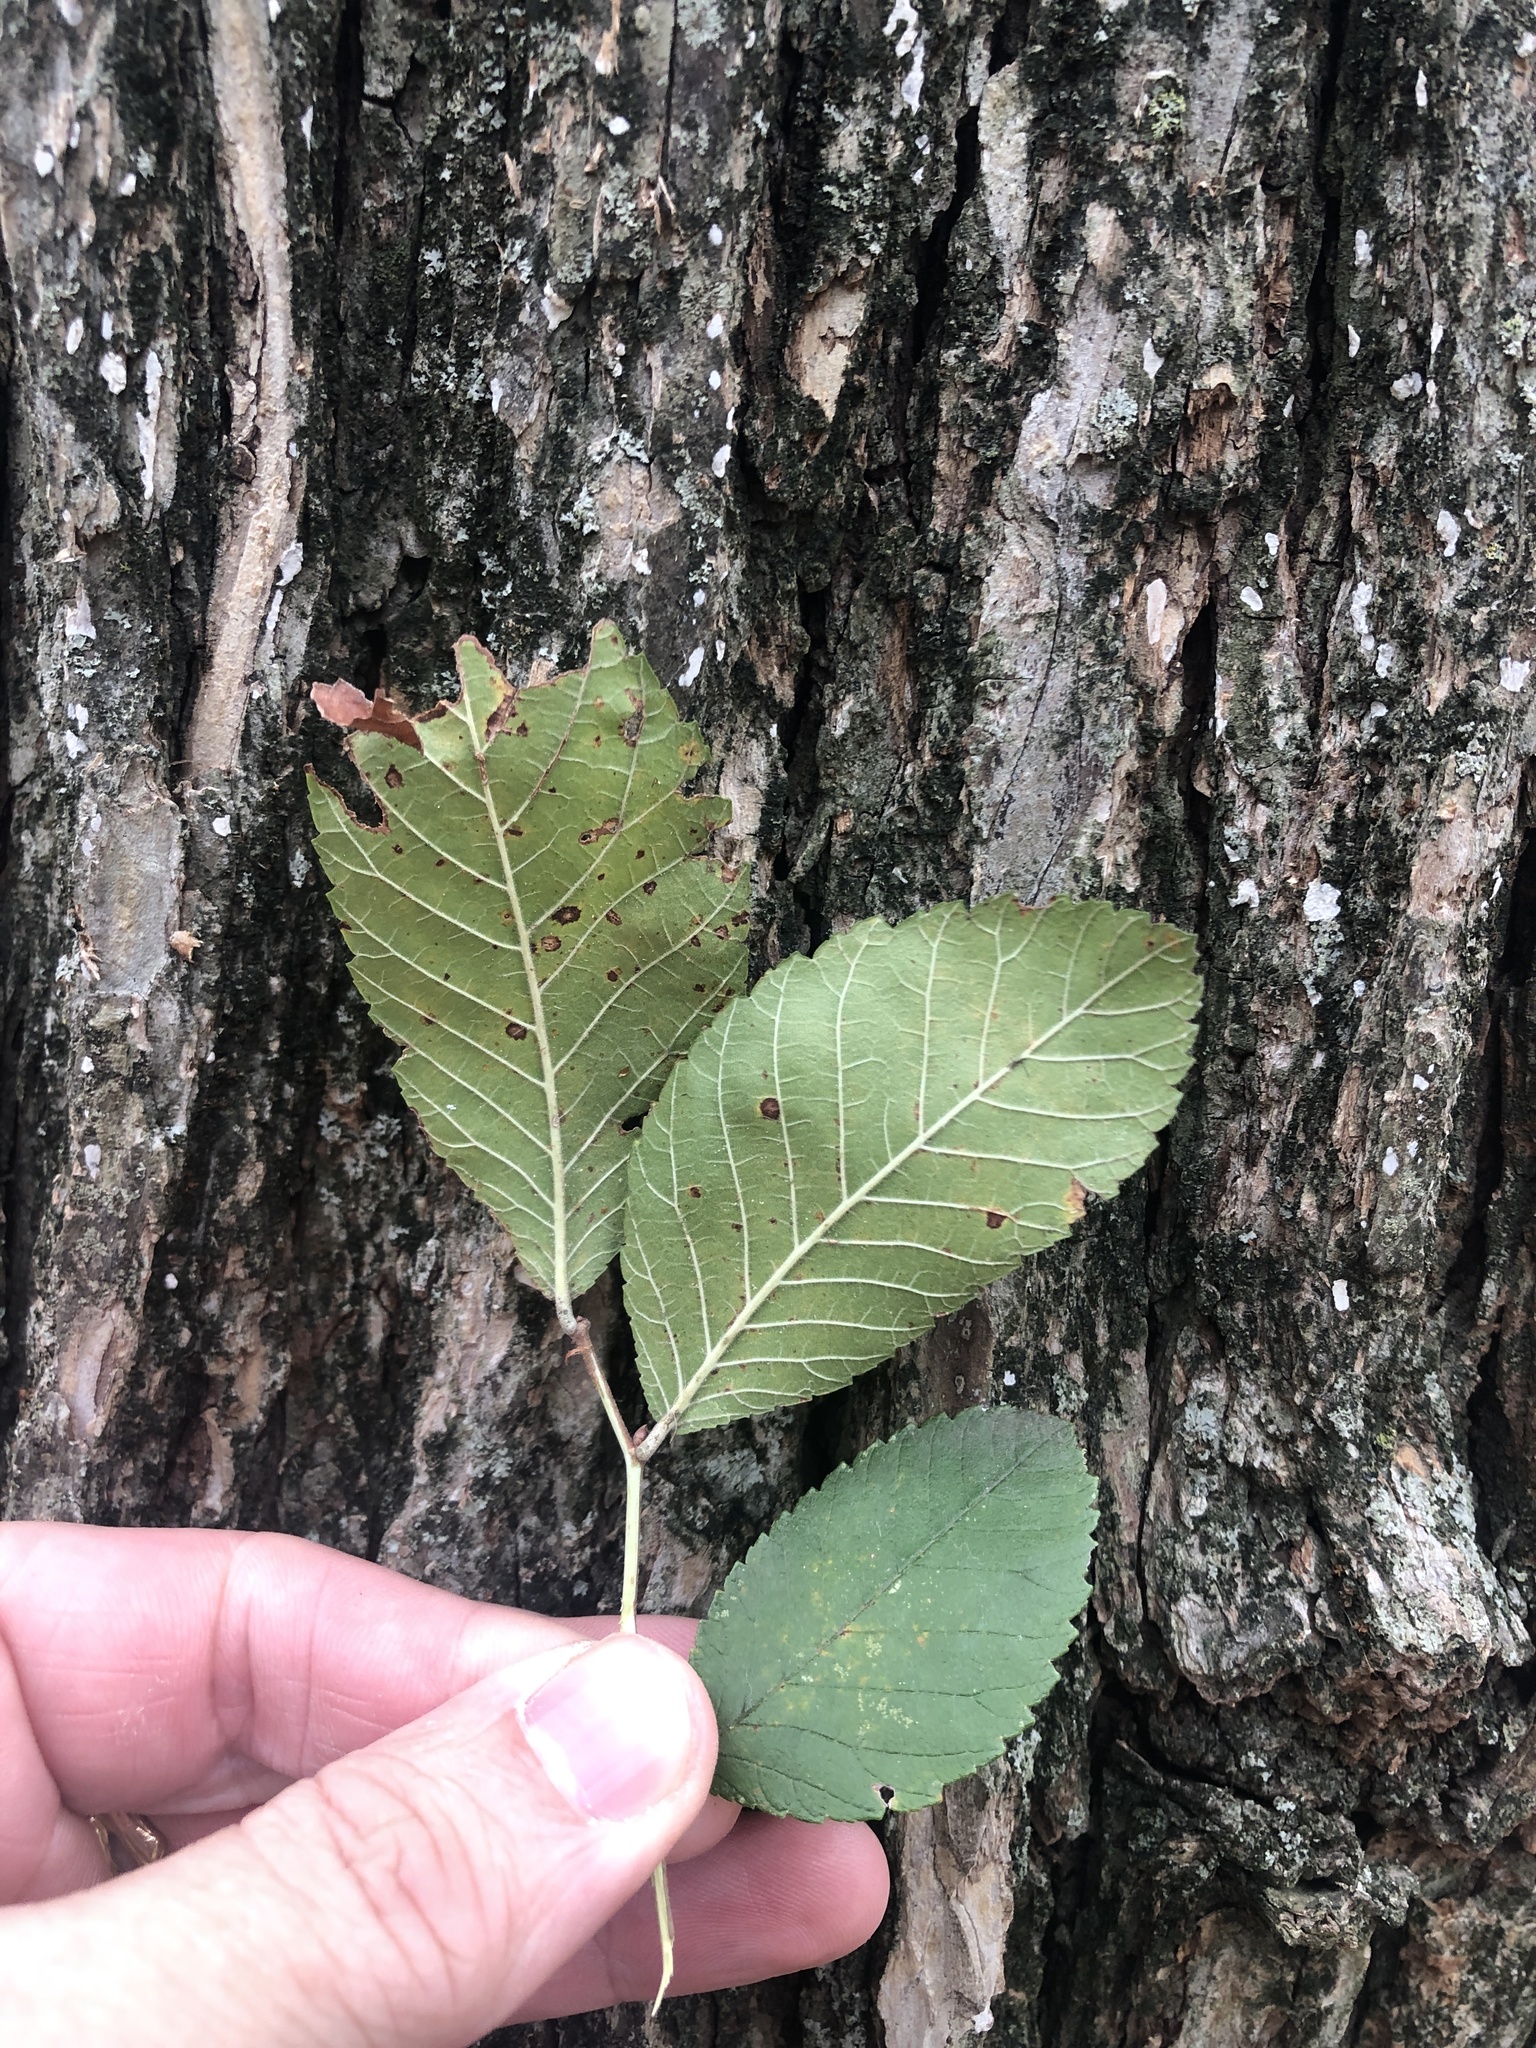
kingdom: Plantae
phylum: Tracheophyta
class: Magnoliopsida
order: Rosales
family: Ulmaceae
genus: Ulmus
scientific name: Ulmus crassifolia
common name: Basket elm
